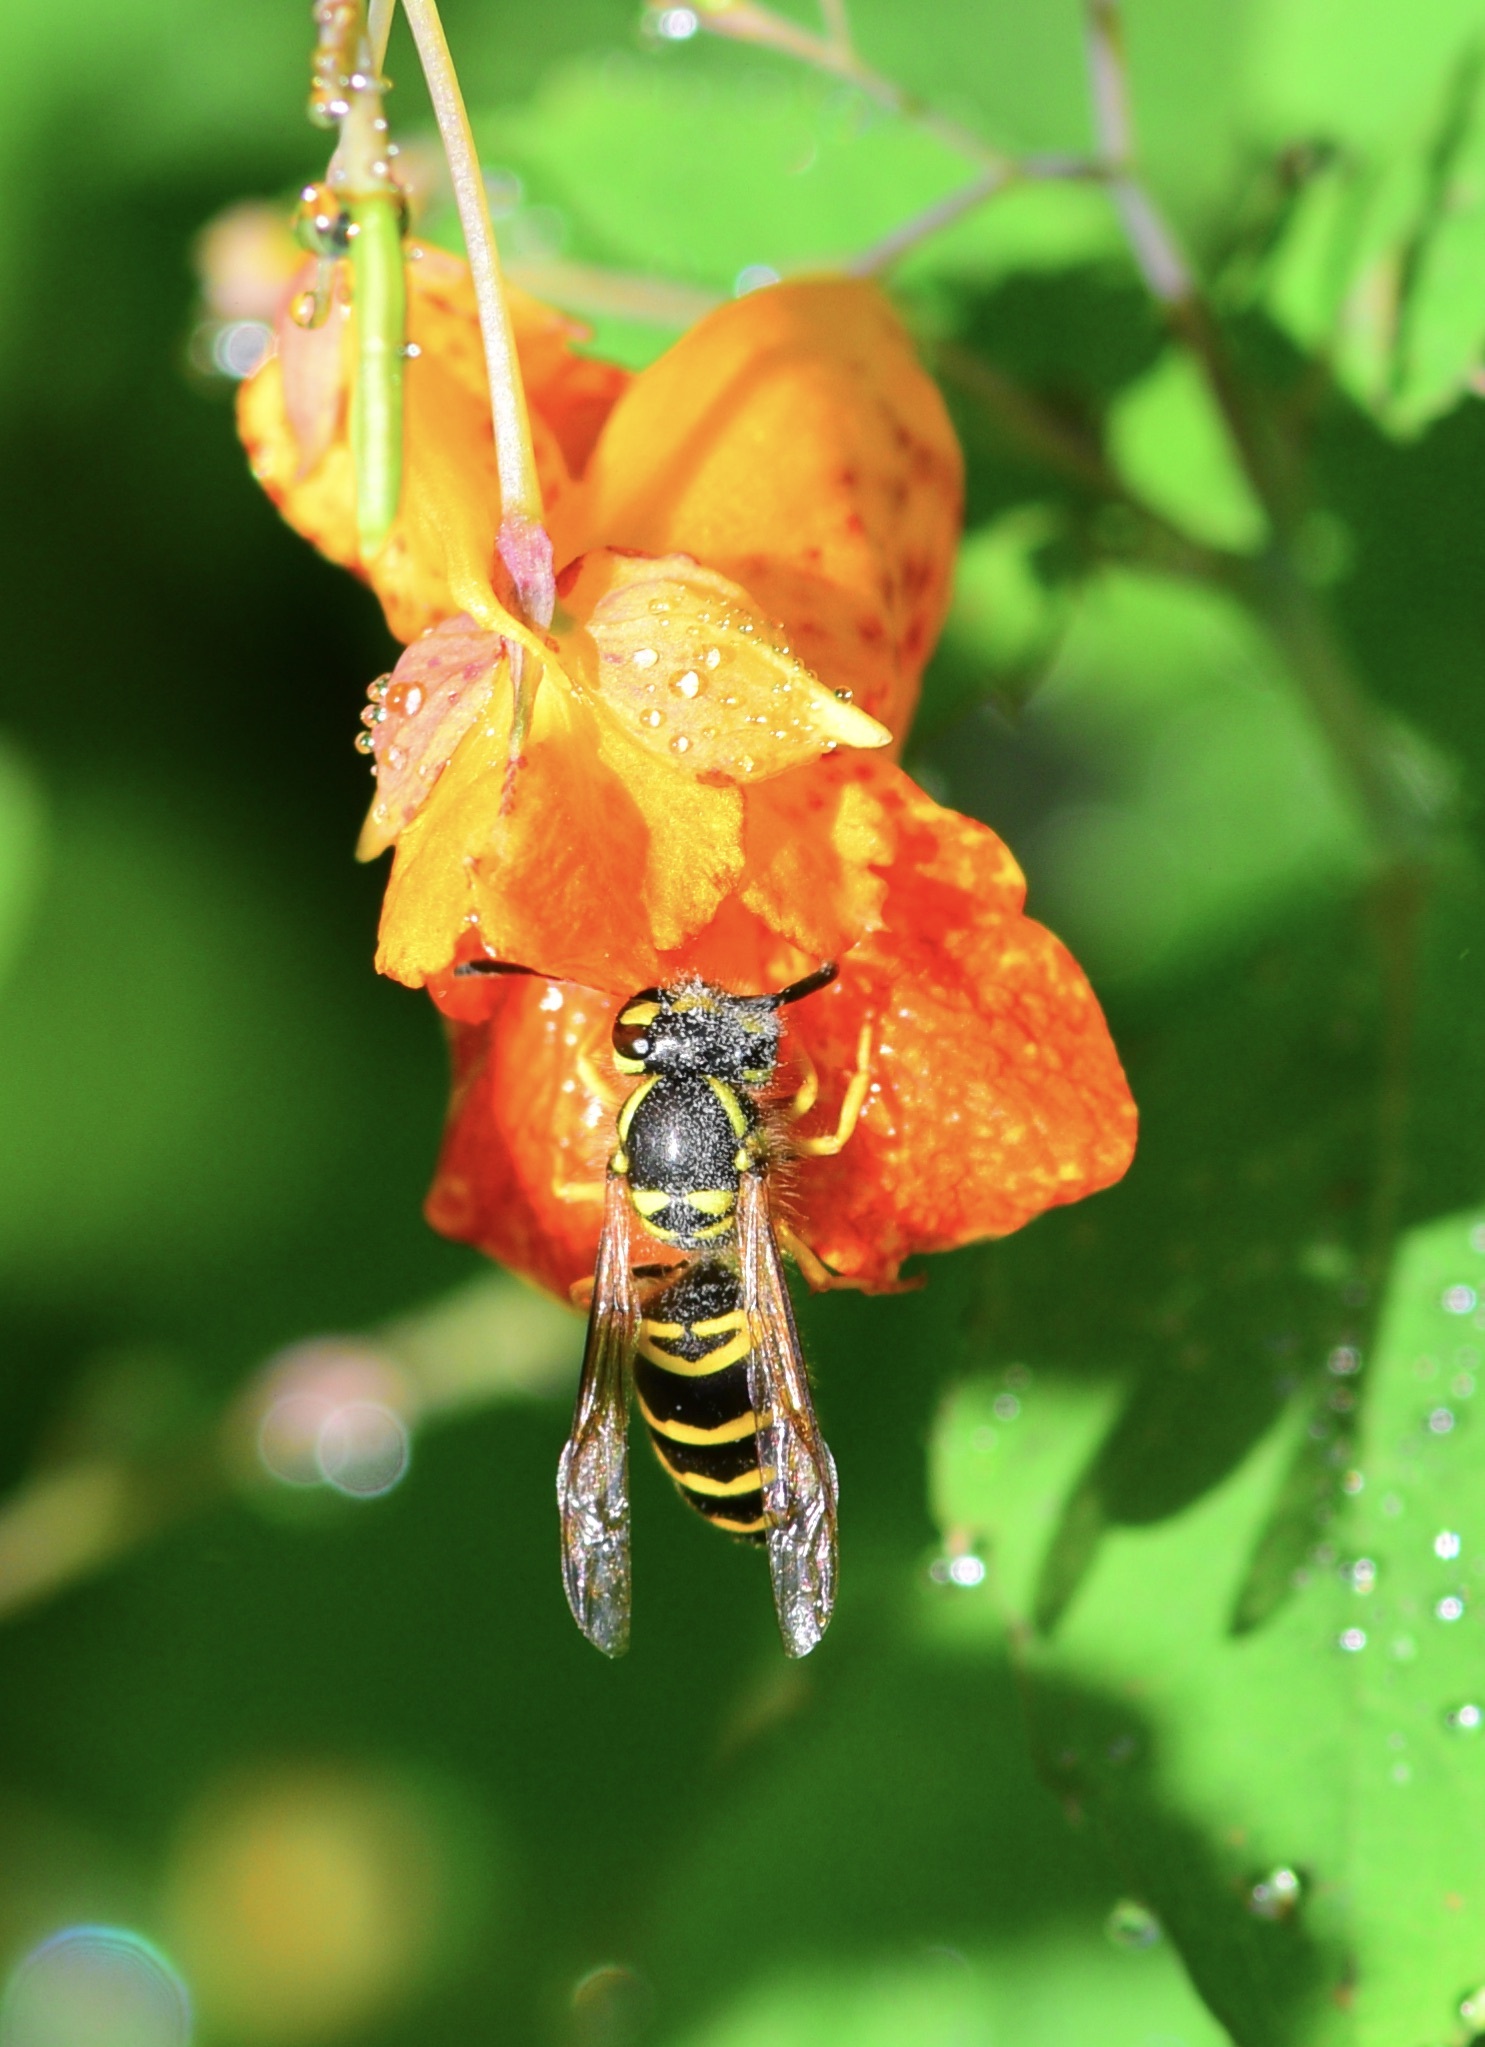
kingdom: Animalia
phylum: Arthropoda
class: Insecta
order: Hymenoptera
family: Vespidae
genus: Vespula
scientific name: Vespula maculifrons
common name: Eastern yellowjacket
